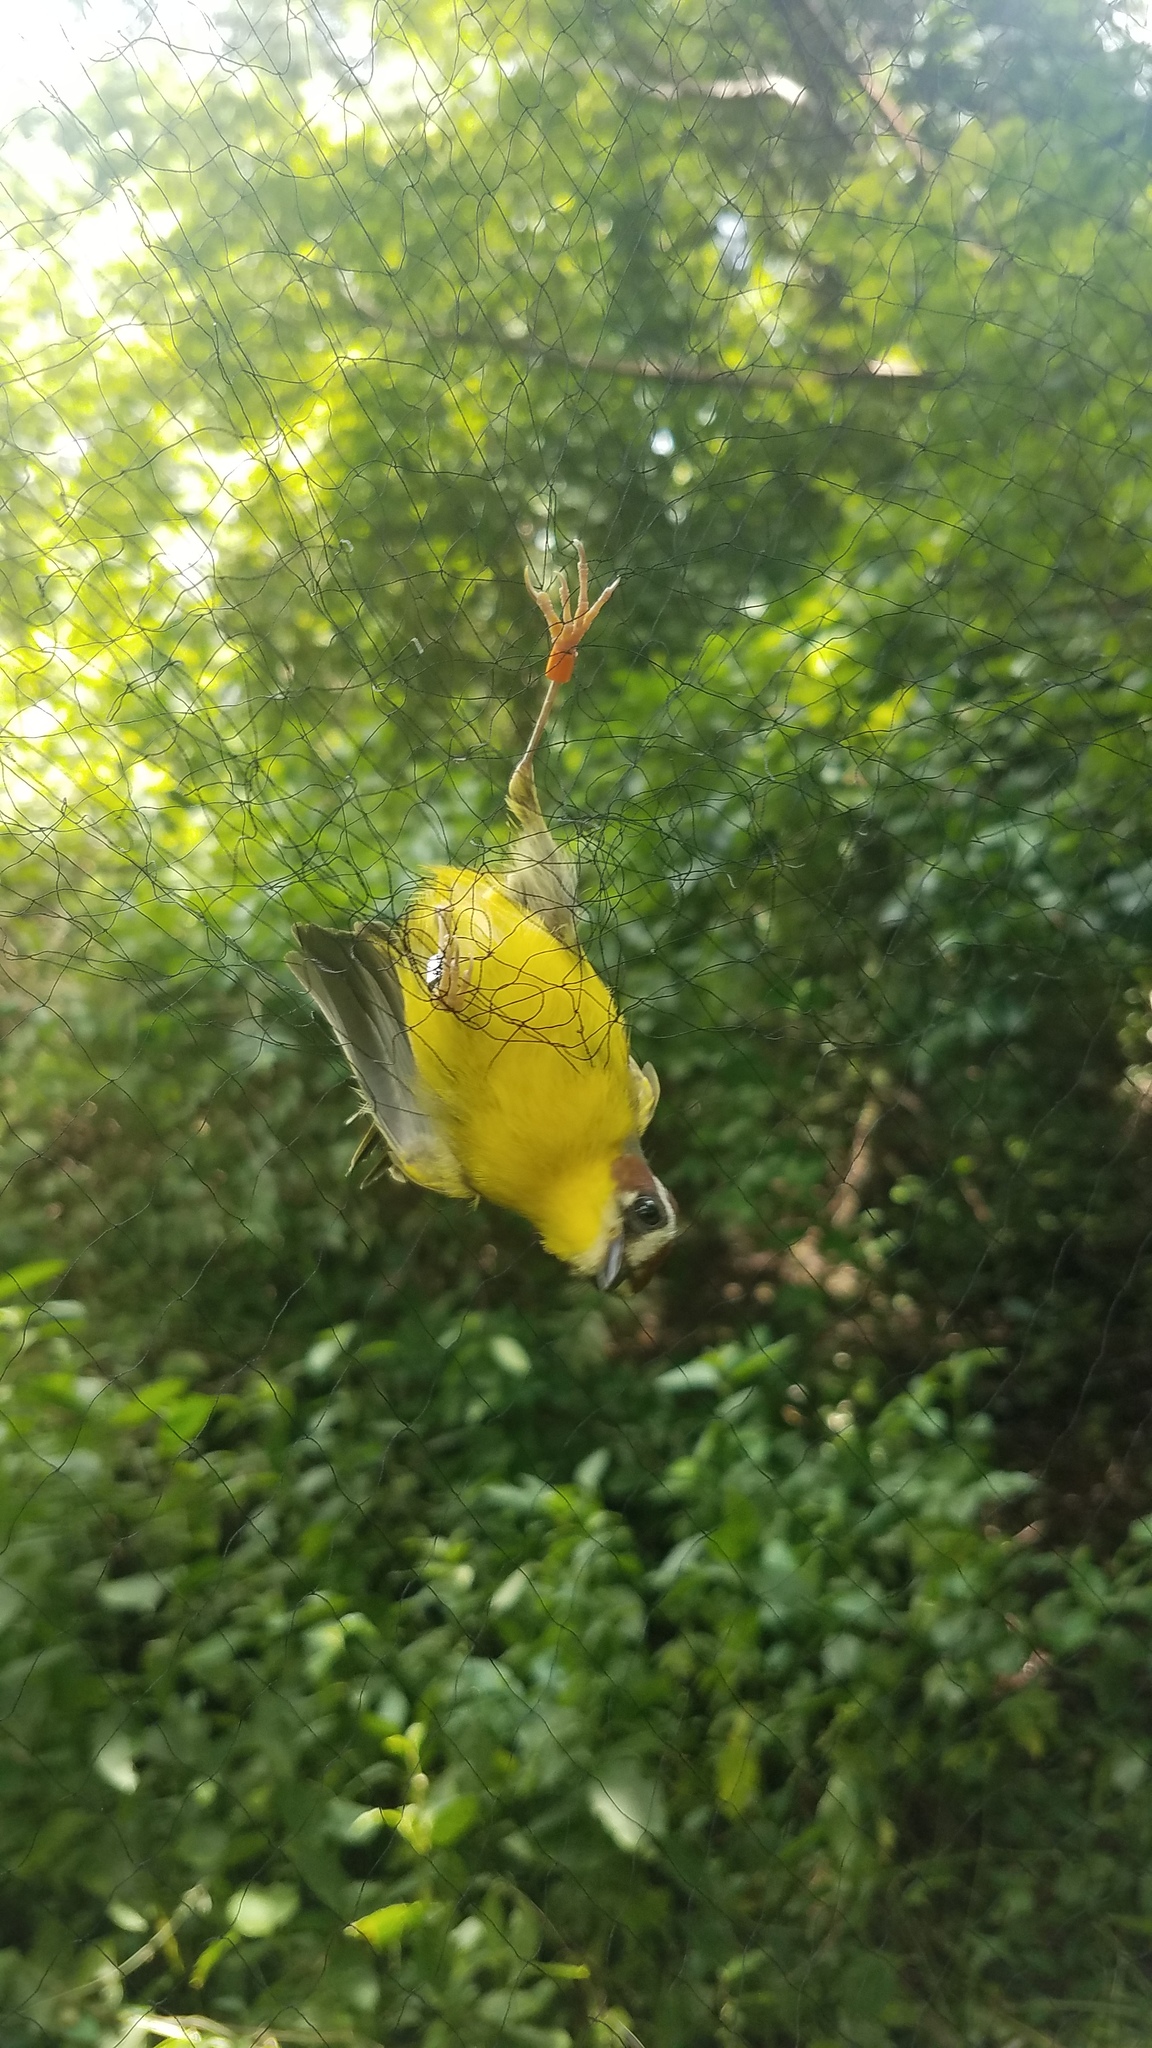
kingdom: Animalia
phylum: Chordata
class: Aves
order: Passeriformes
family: Parulidae
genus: Basileuterus
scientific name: Basileuterus rufifrons
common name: Rufous-capped warbler
